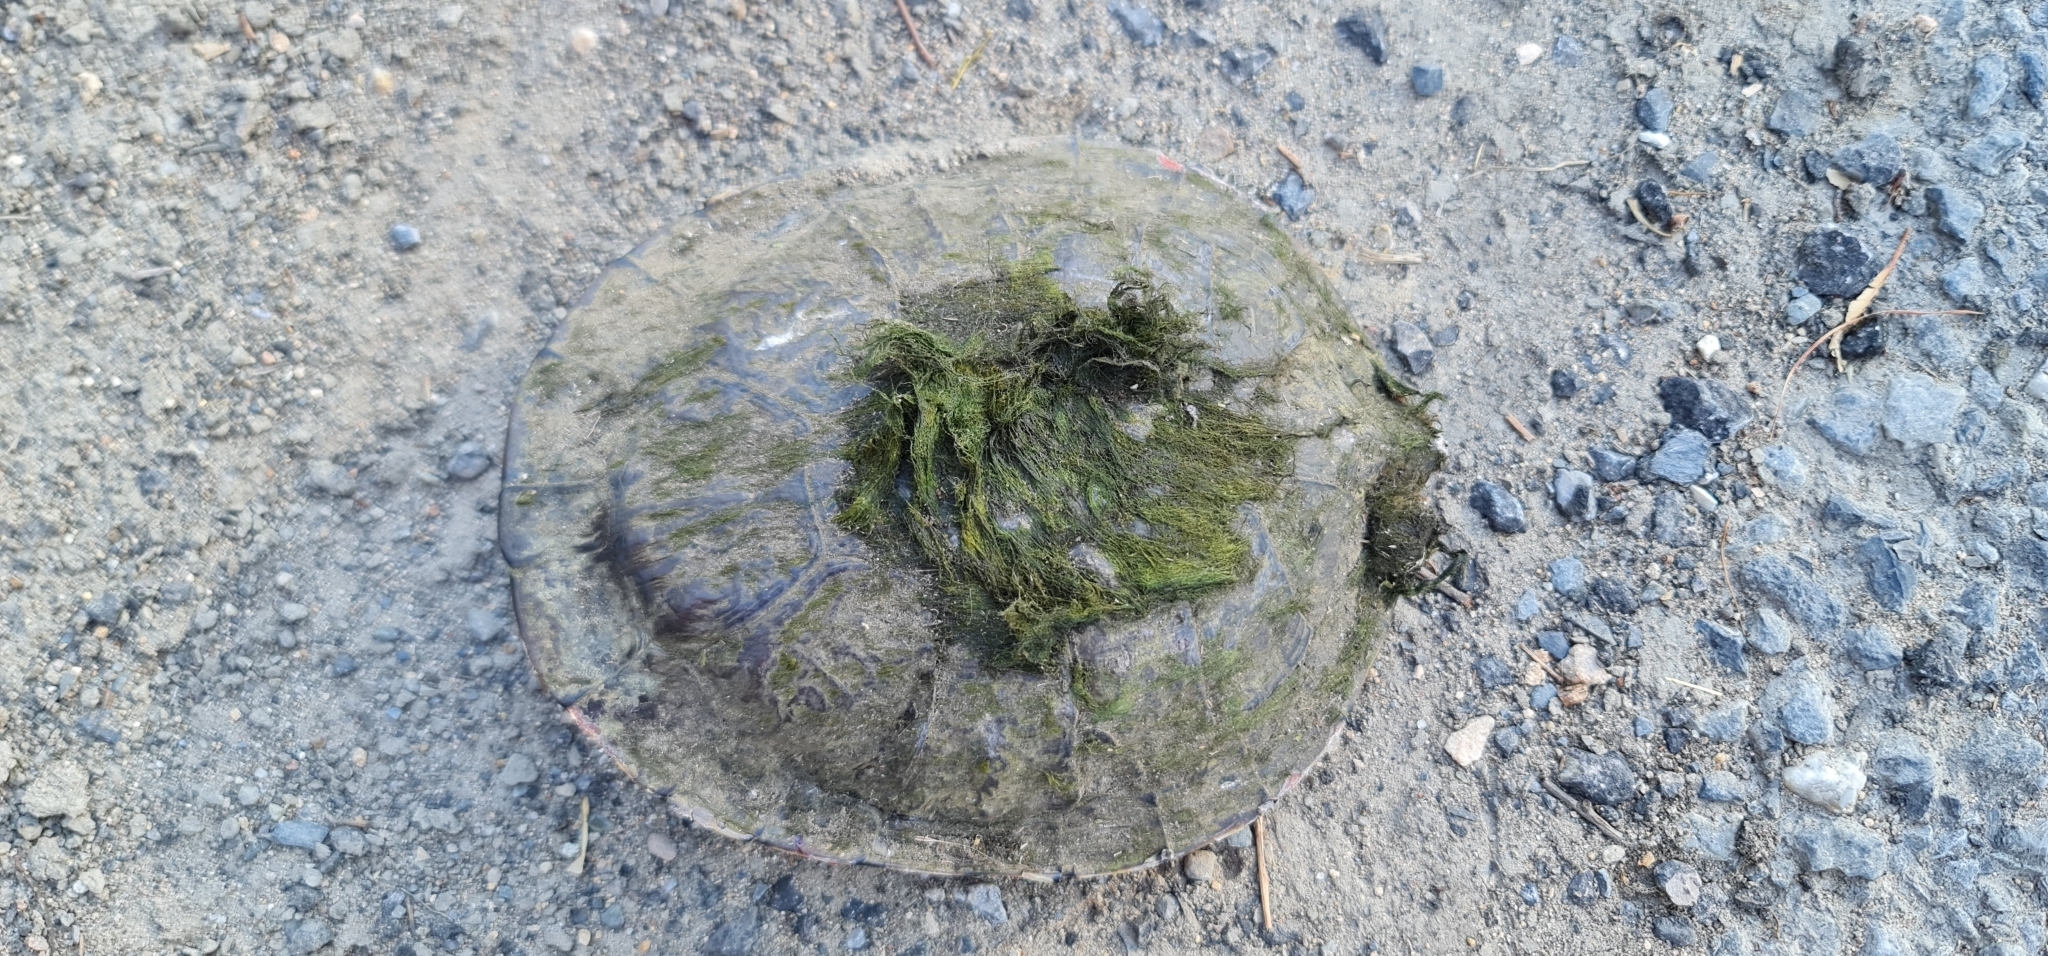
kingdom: Animalia
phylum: Chordata
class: Testudines
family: Chelidae
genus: Chelodina
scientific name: Chelodina longicollis
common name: Eastern snake-necked turtle
